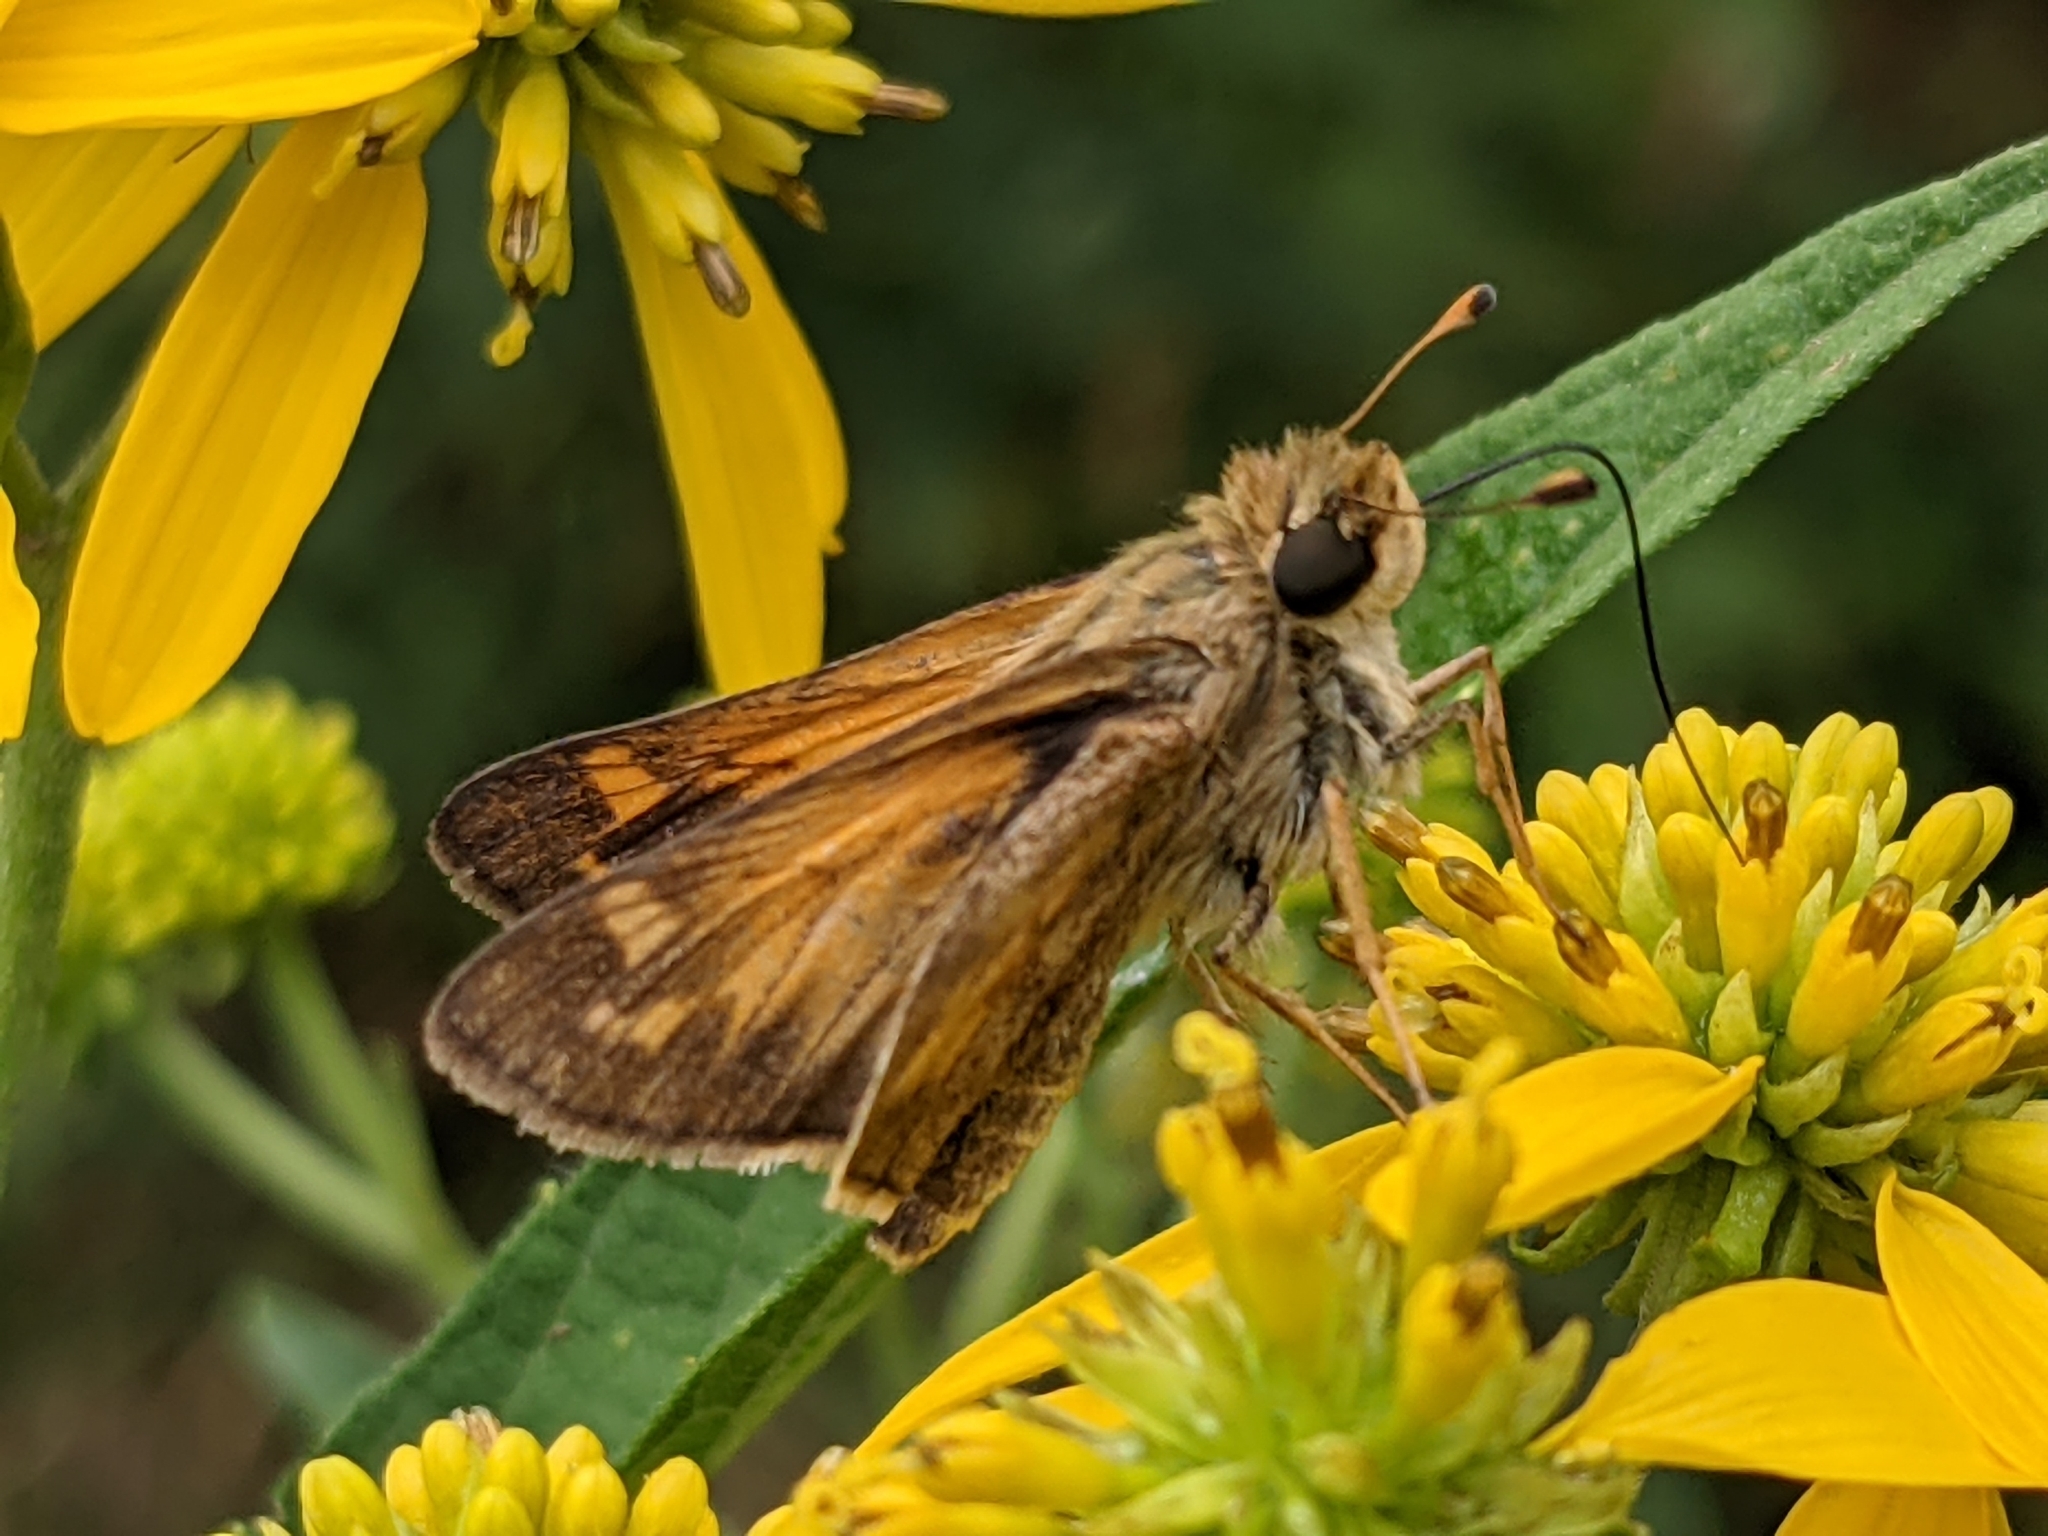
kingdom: Animalia
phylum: Arthropoda
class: Insecta
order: Lepidoptera
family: Hesperiidae
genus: Atalopedes
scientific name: Atalopedes
